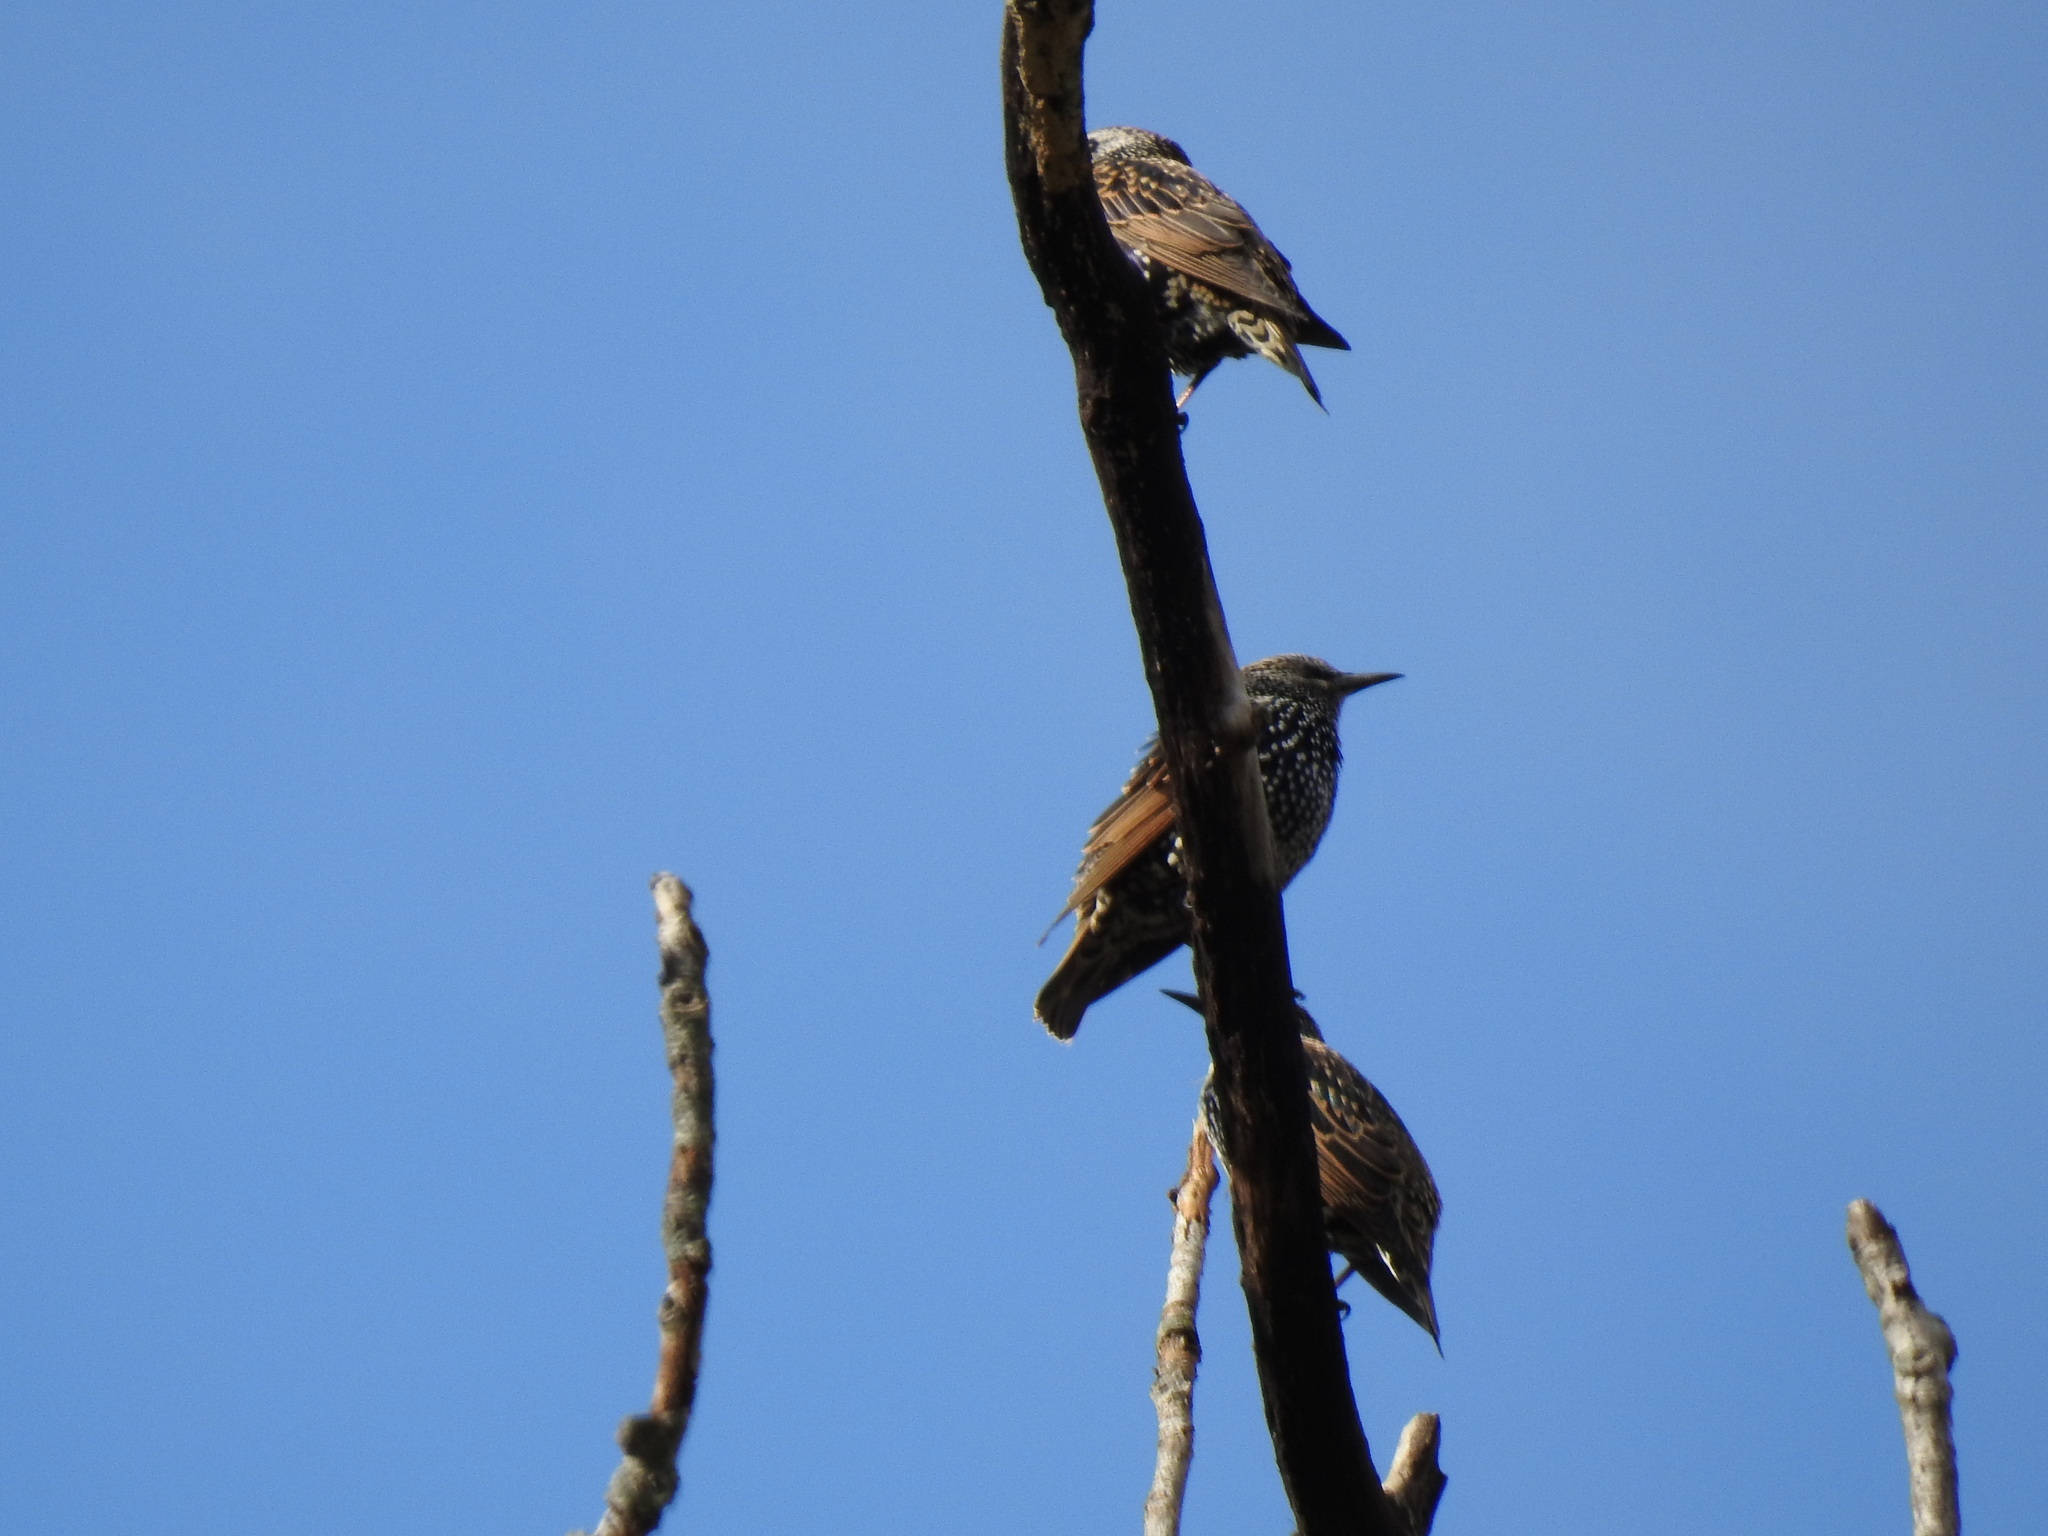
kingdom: Animalia
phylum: Chordata
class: Aves
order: Passeriformes
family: Sturnidae
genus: Sturnus
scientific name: Sturnus vulgaris
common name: Common starling
